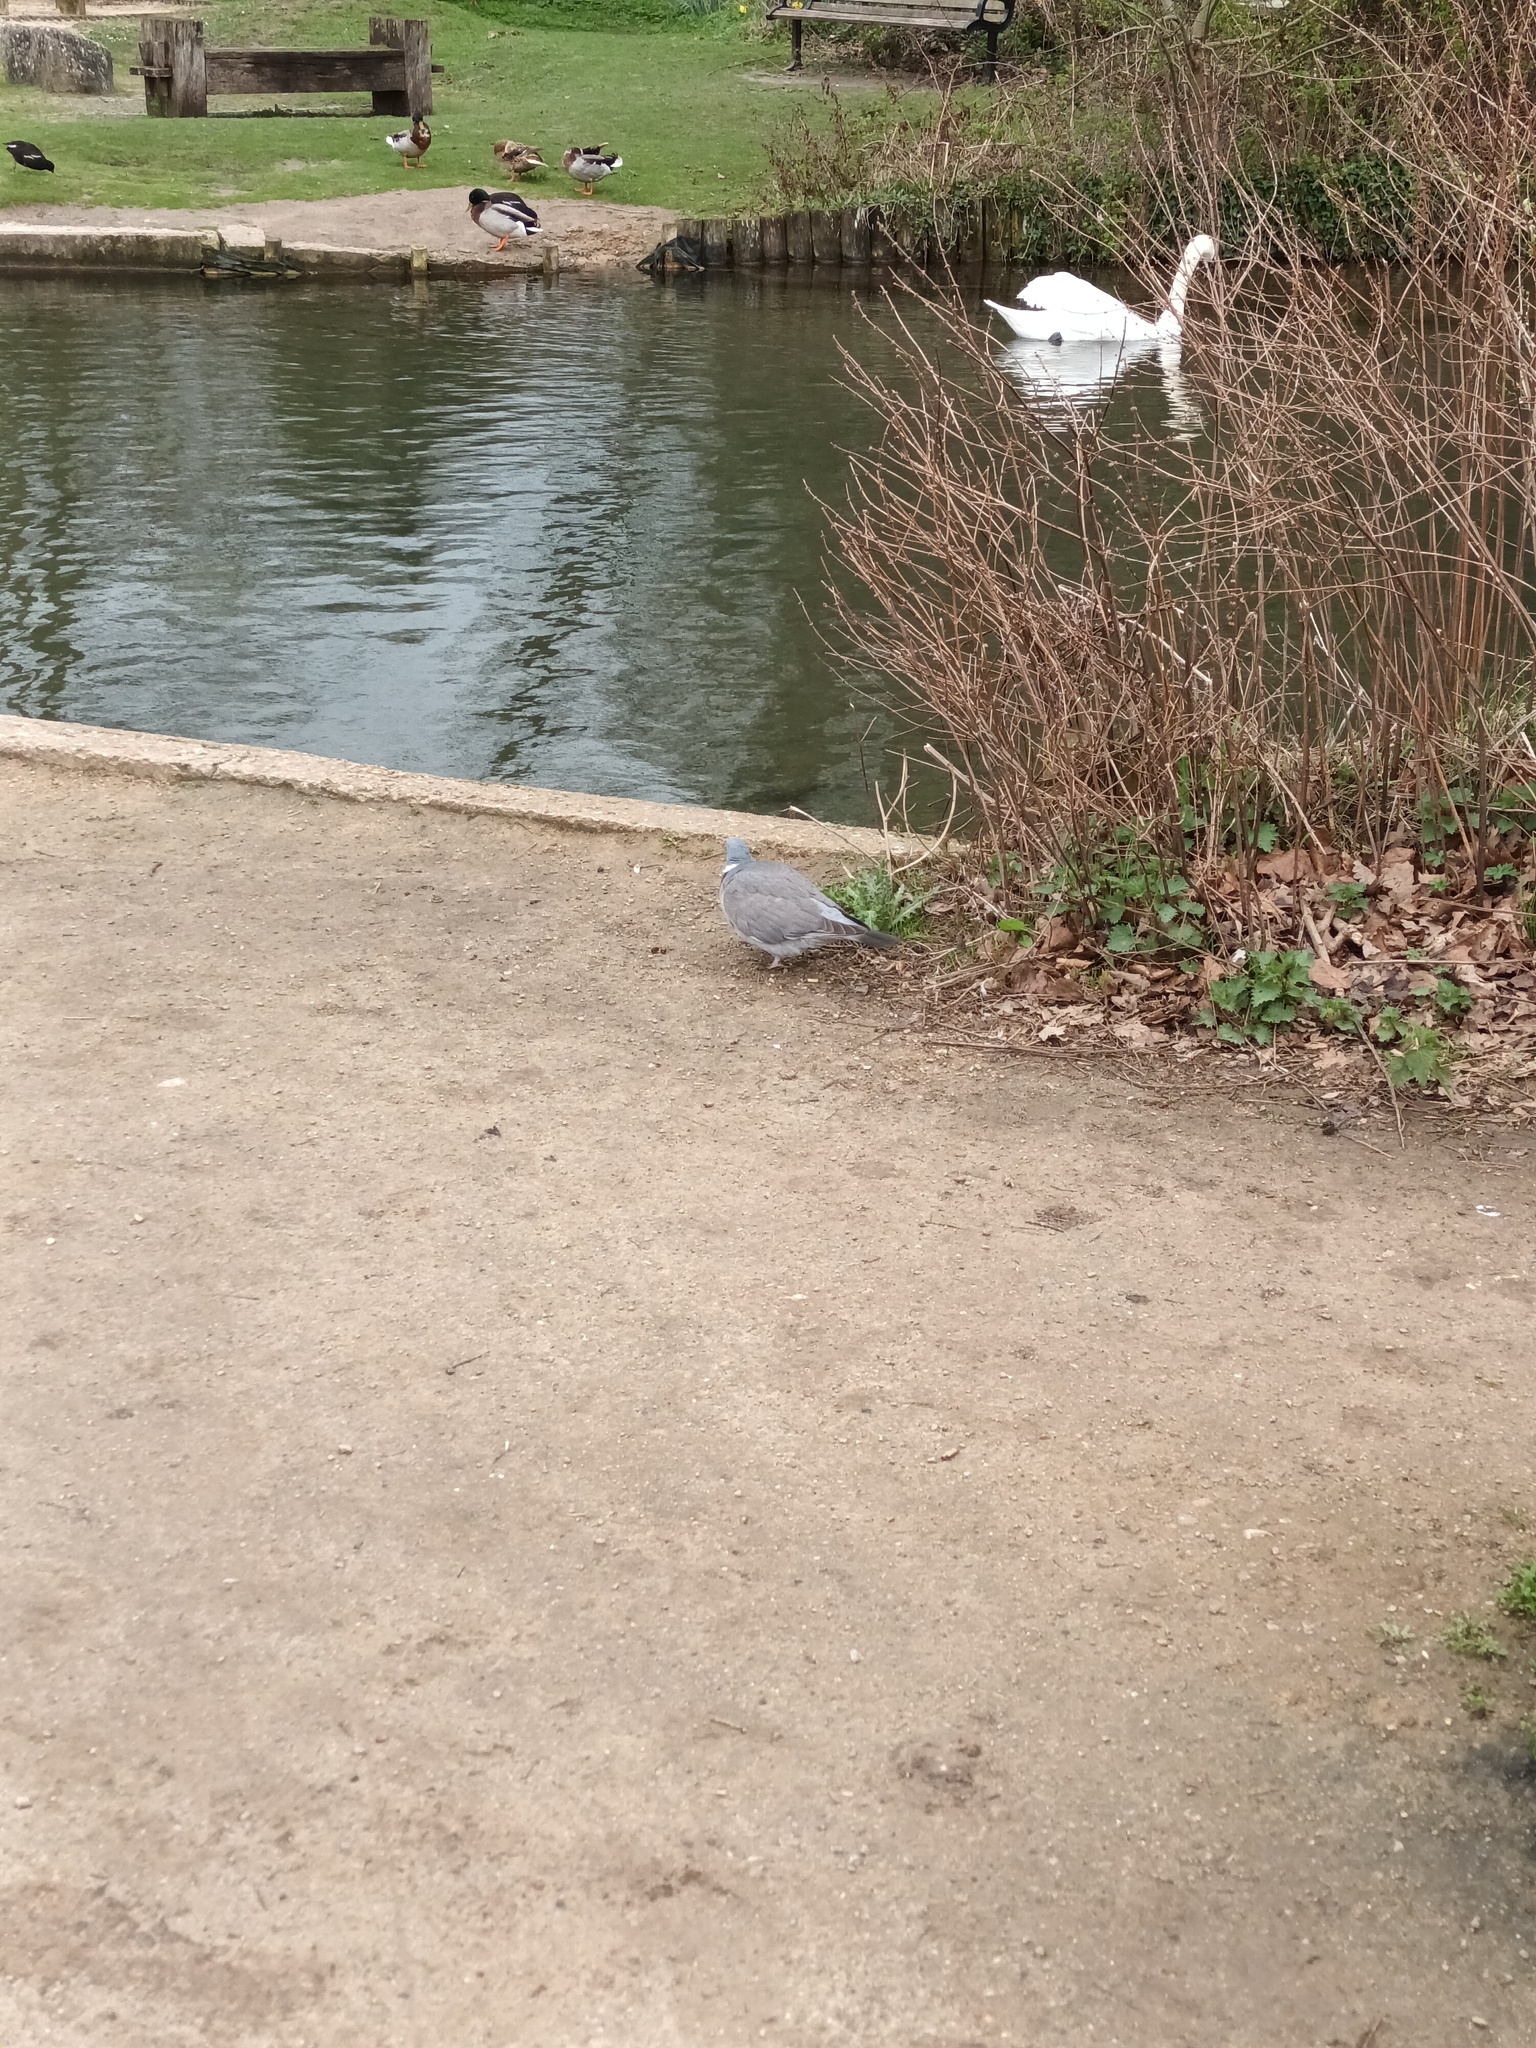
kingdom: Animalia
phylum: Chordata
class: Aves
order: Columbiformes
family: Columbidae
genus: Columba
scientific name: Columba palumbus
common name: Common wood pigeon
